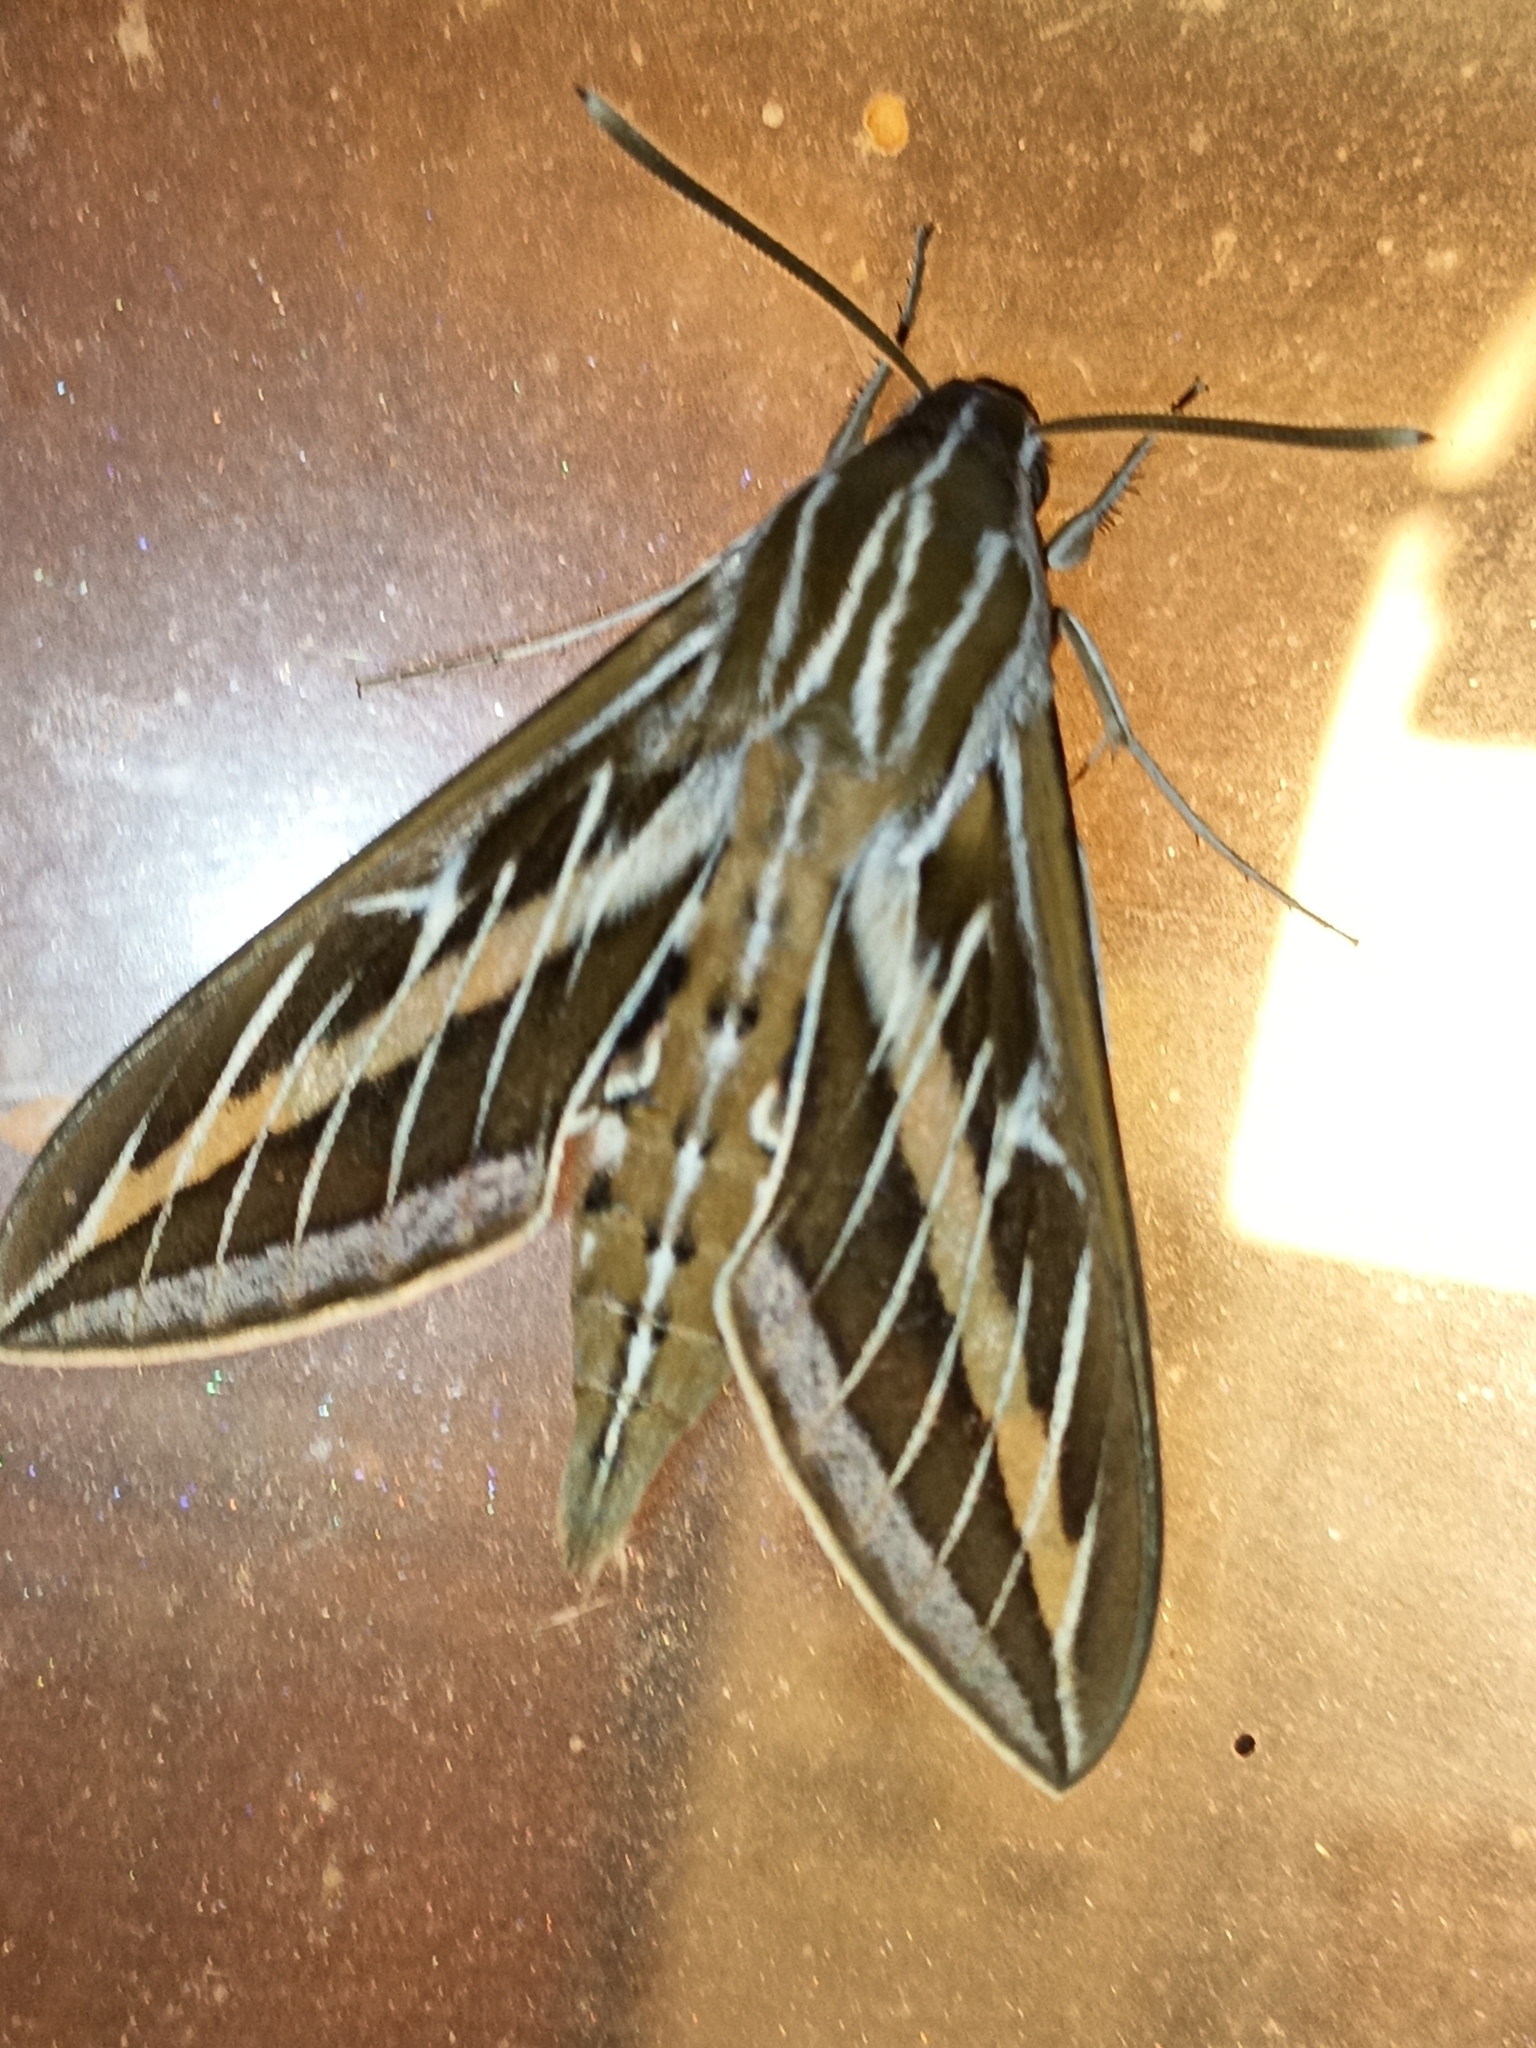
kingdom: Animalia
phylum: Arthropoda
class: Insecta
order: Lepidoptera
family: Sphingidae
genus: Hyles
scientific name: Hyles lineata
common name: White-lined sphinx
